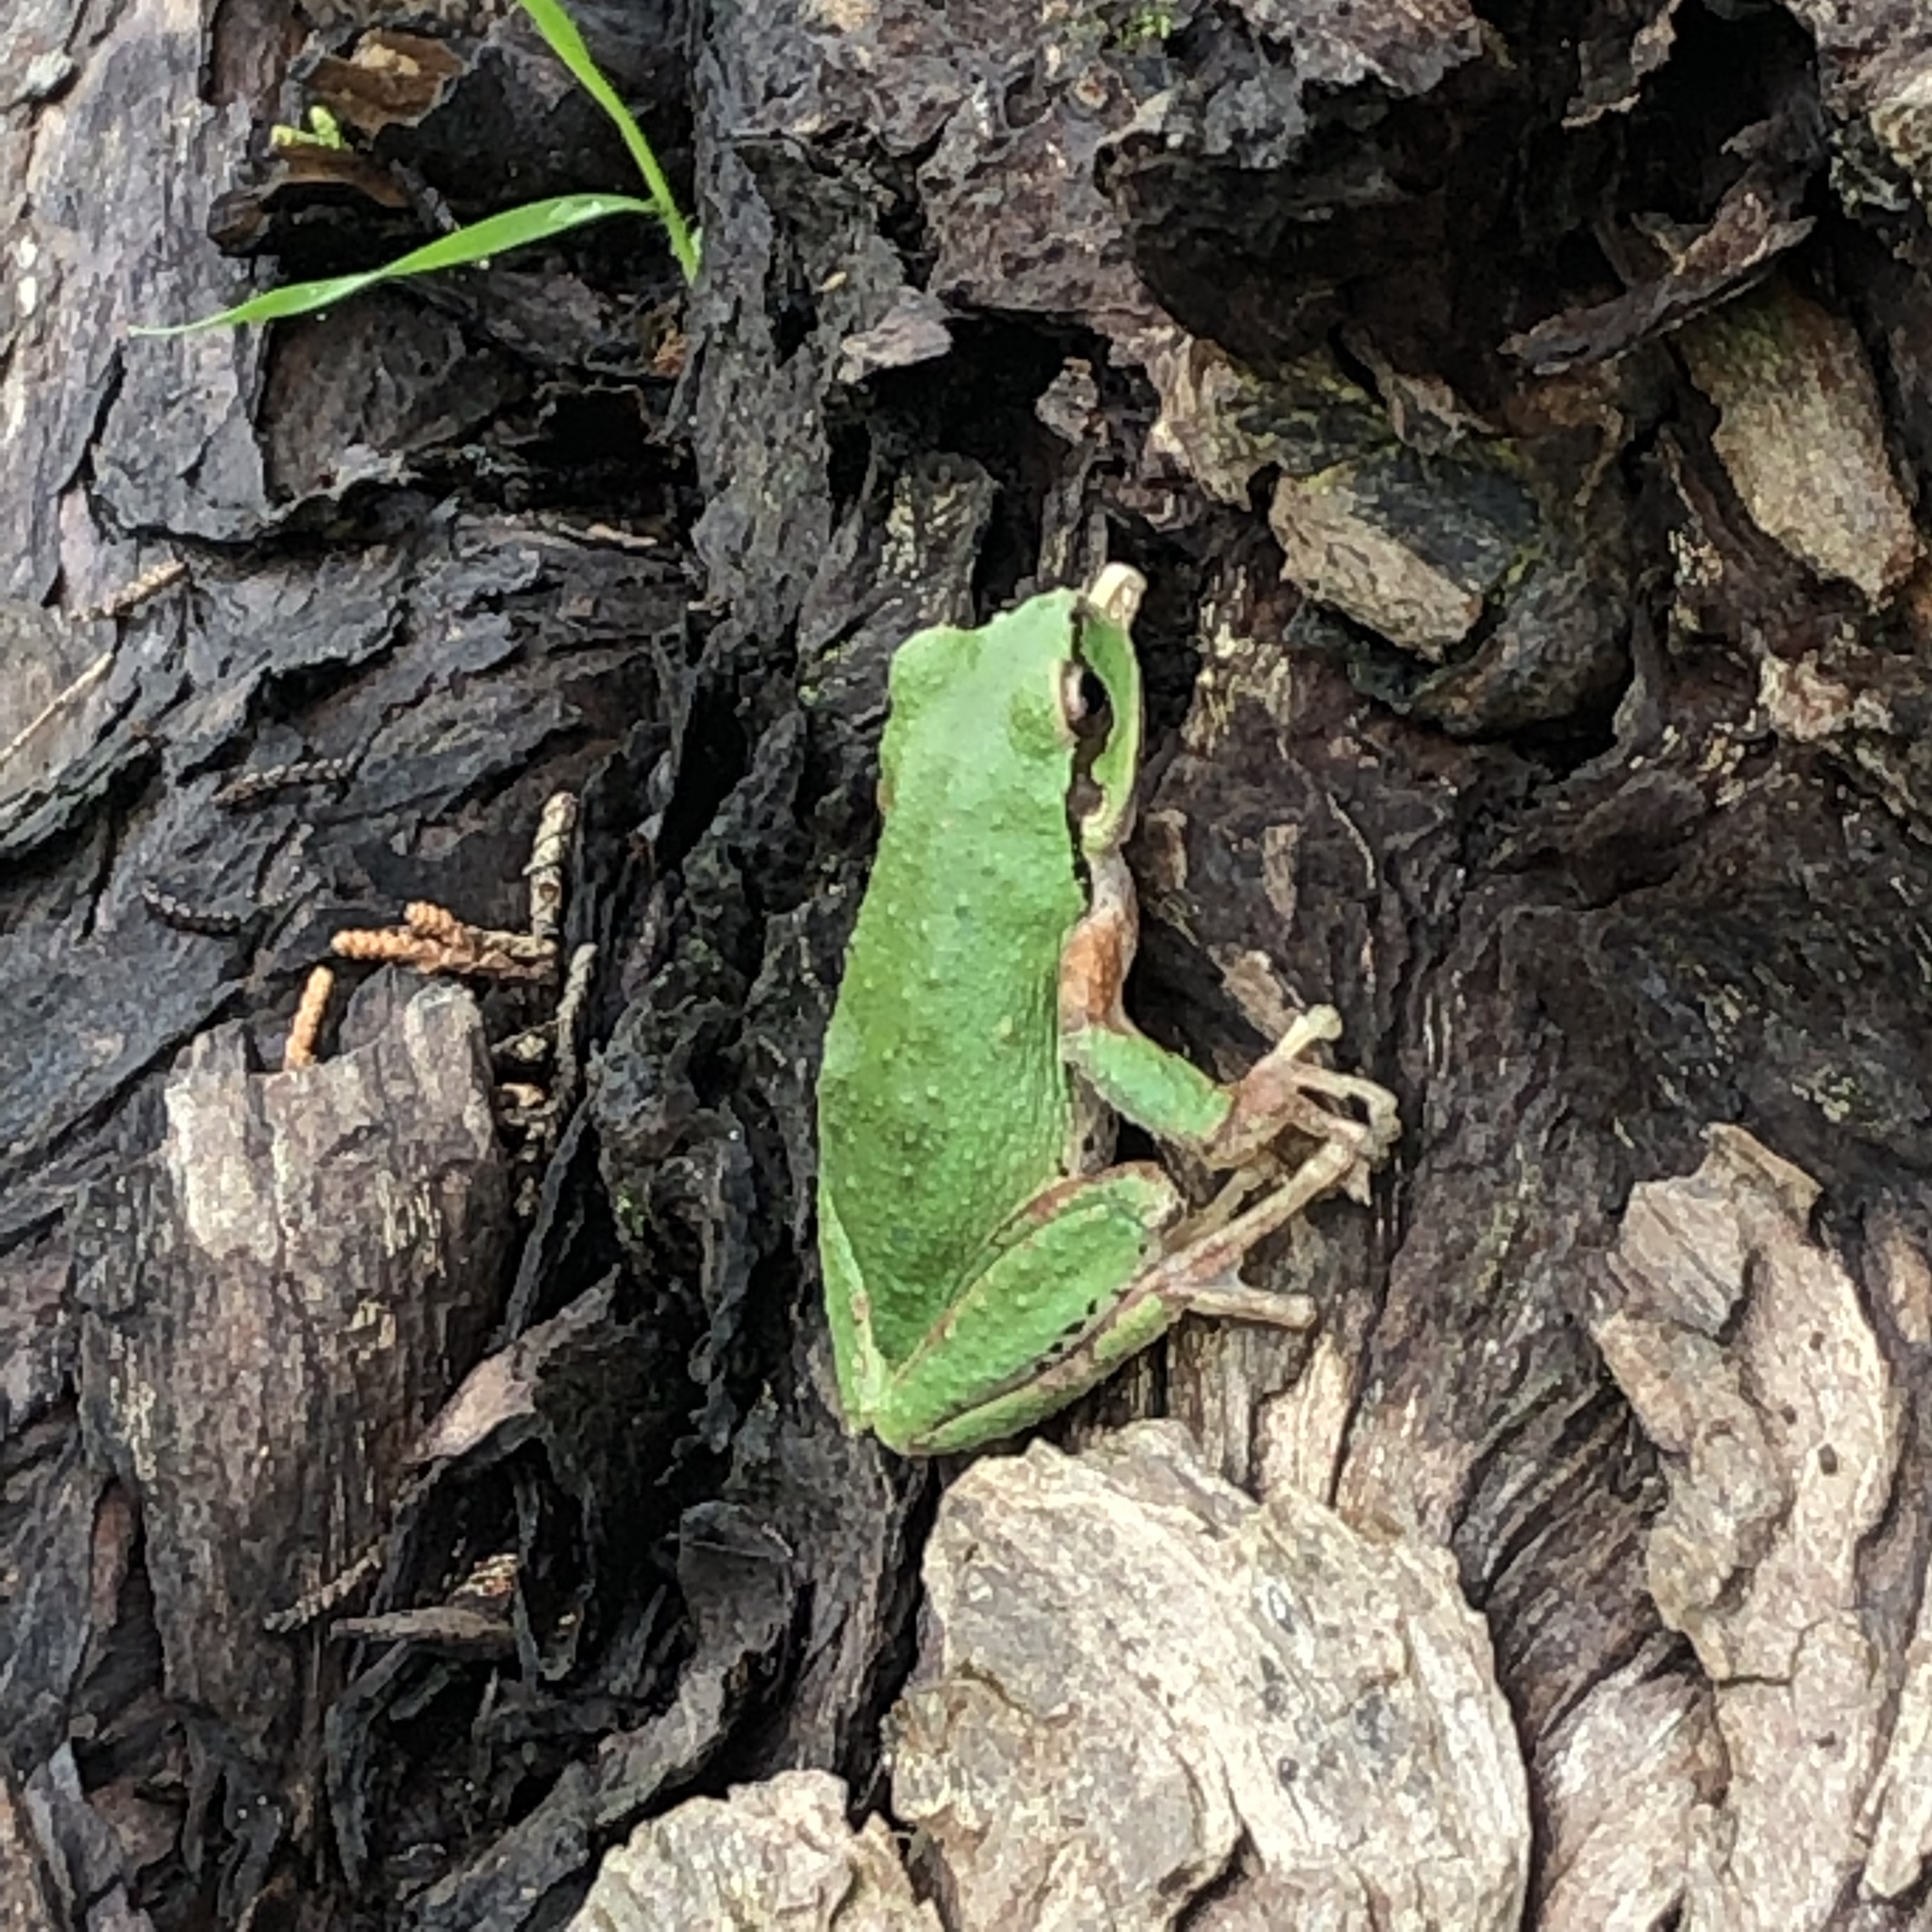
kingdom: Animalia
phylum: Chordata
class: Amphibia
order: Anura
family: Hylidae
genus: Pseudacris
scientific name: Pseudacris regilla
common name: Pacific chorus frog
